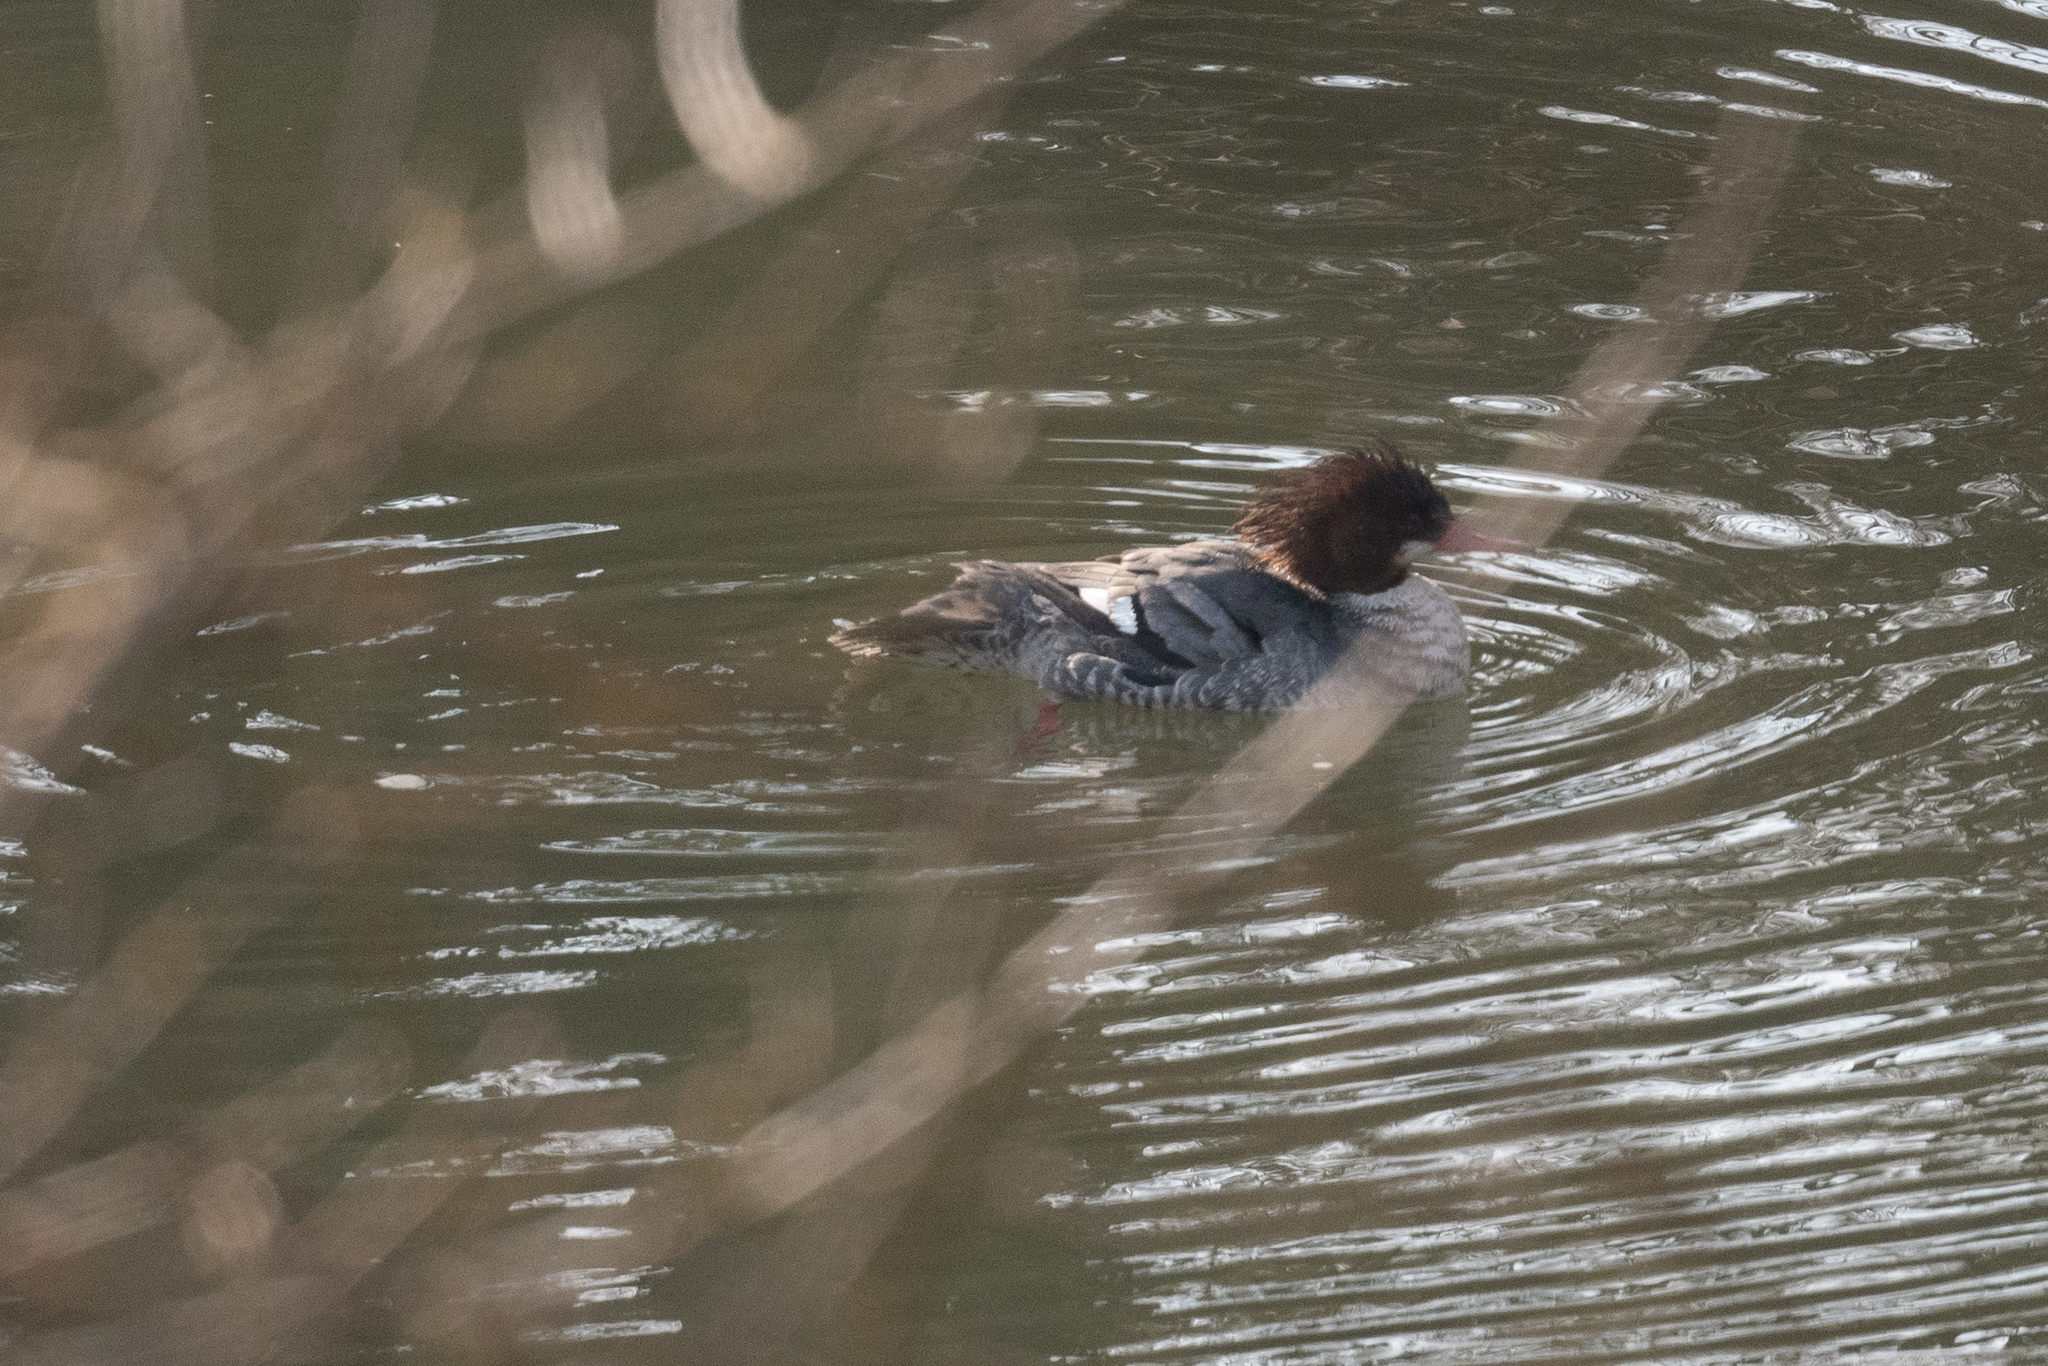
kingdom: Animalia
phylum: Chordata
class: Aves
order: Anseriformes
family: Anatidae
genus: Mergus
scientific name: Mergus merganser
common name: Common merganser
